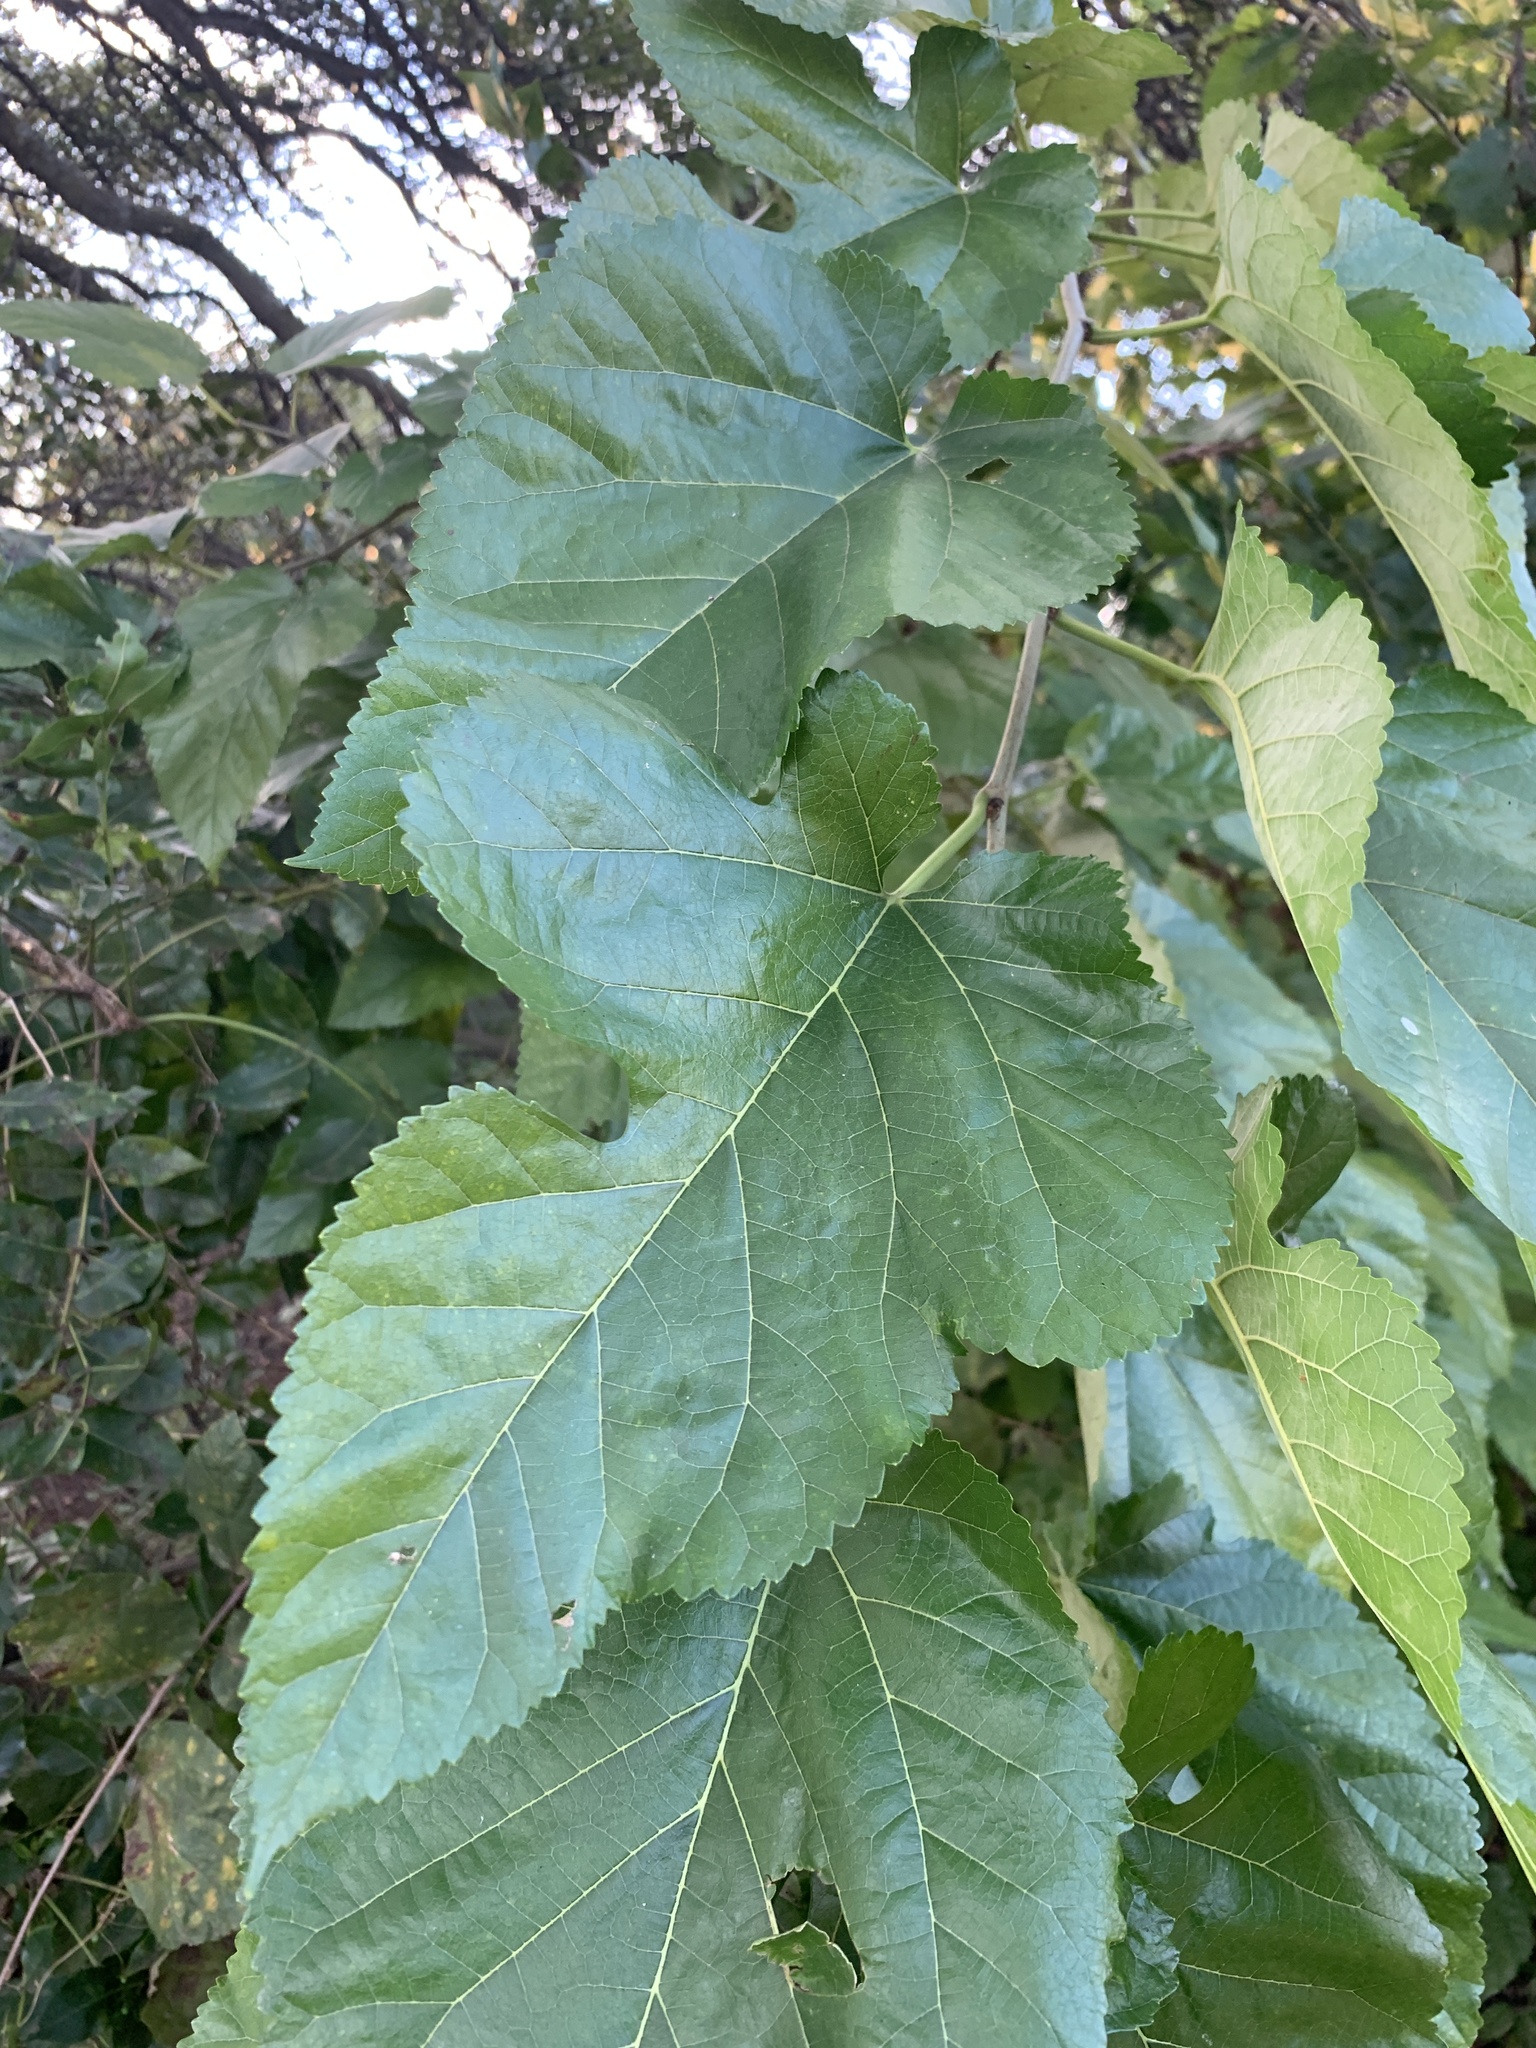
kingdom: Plantae
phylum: Tracheophyta
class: Magnoliopsida
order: Rosales
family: Moraceae
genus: Morus
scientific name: Morus alba
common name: White mulberry
